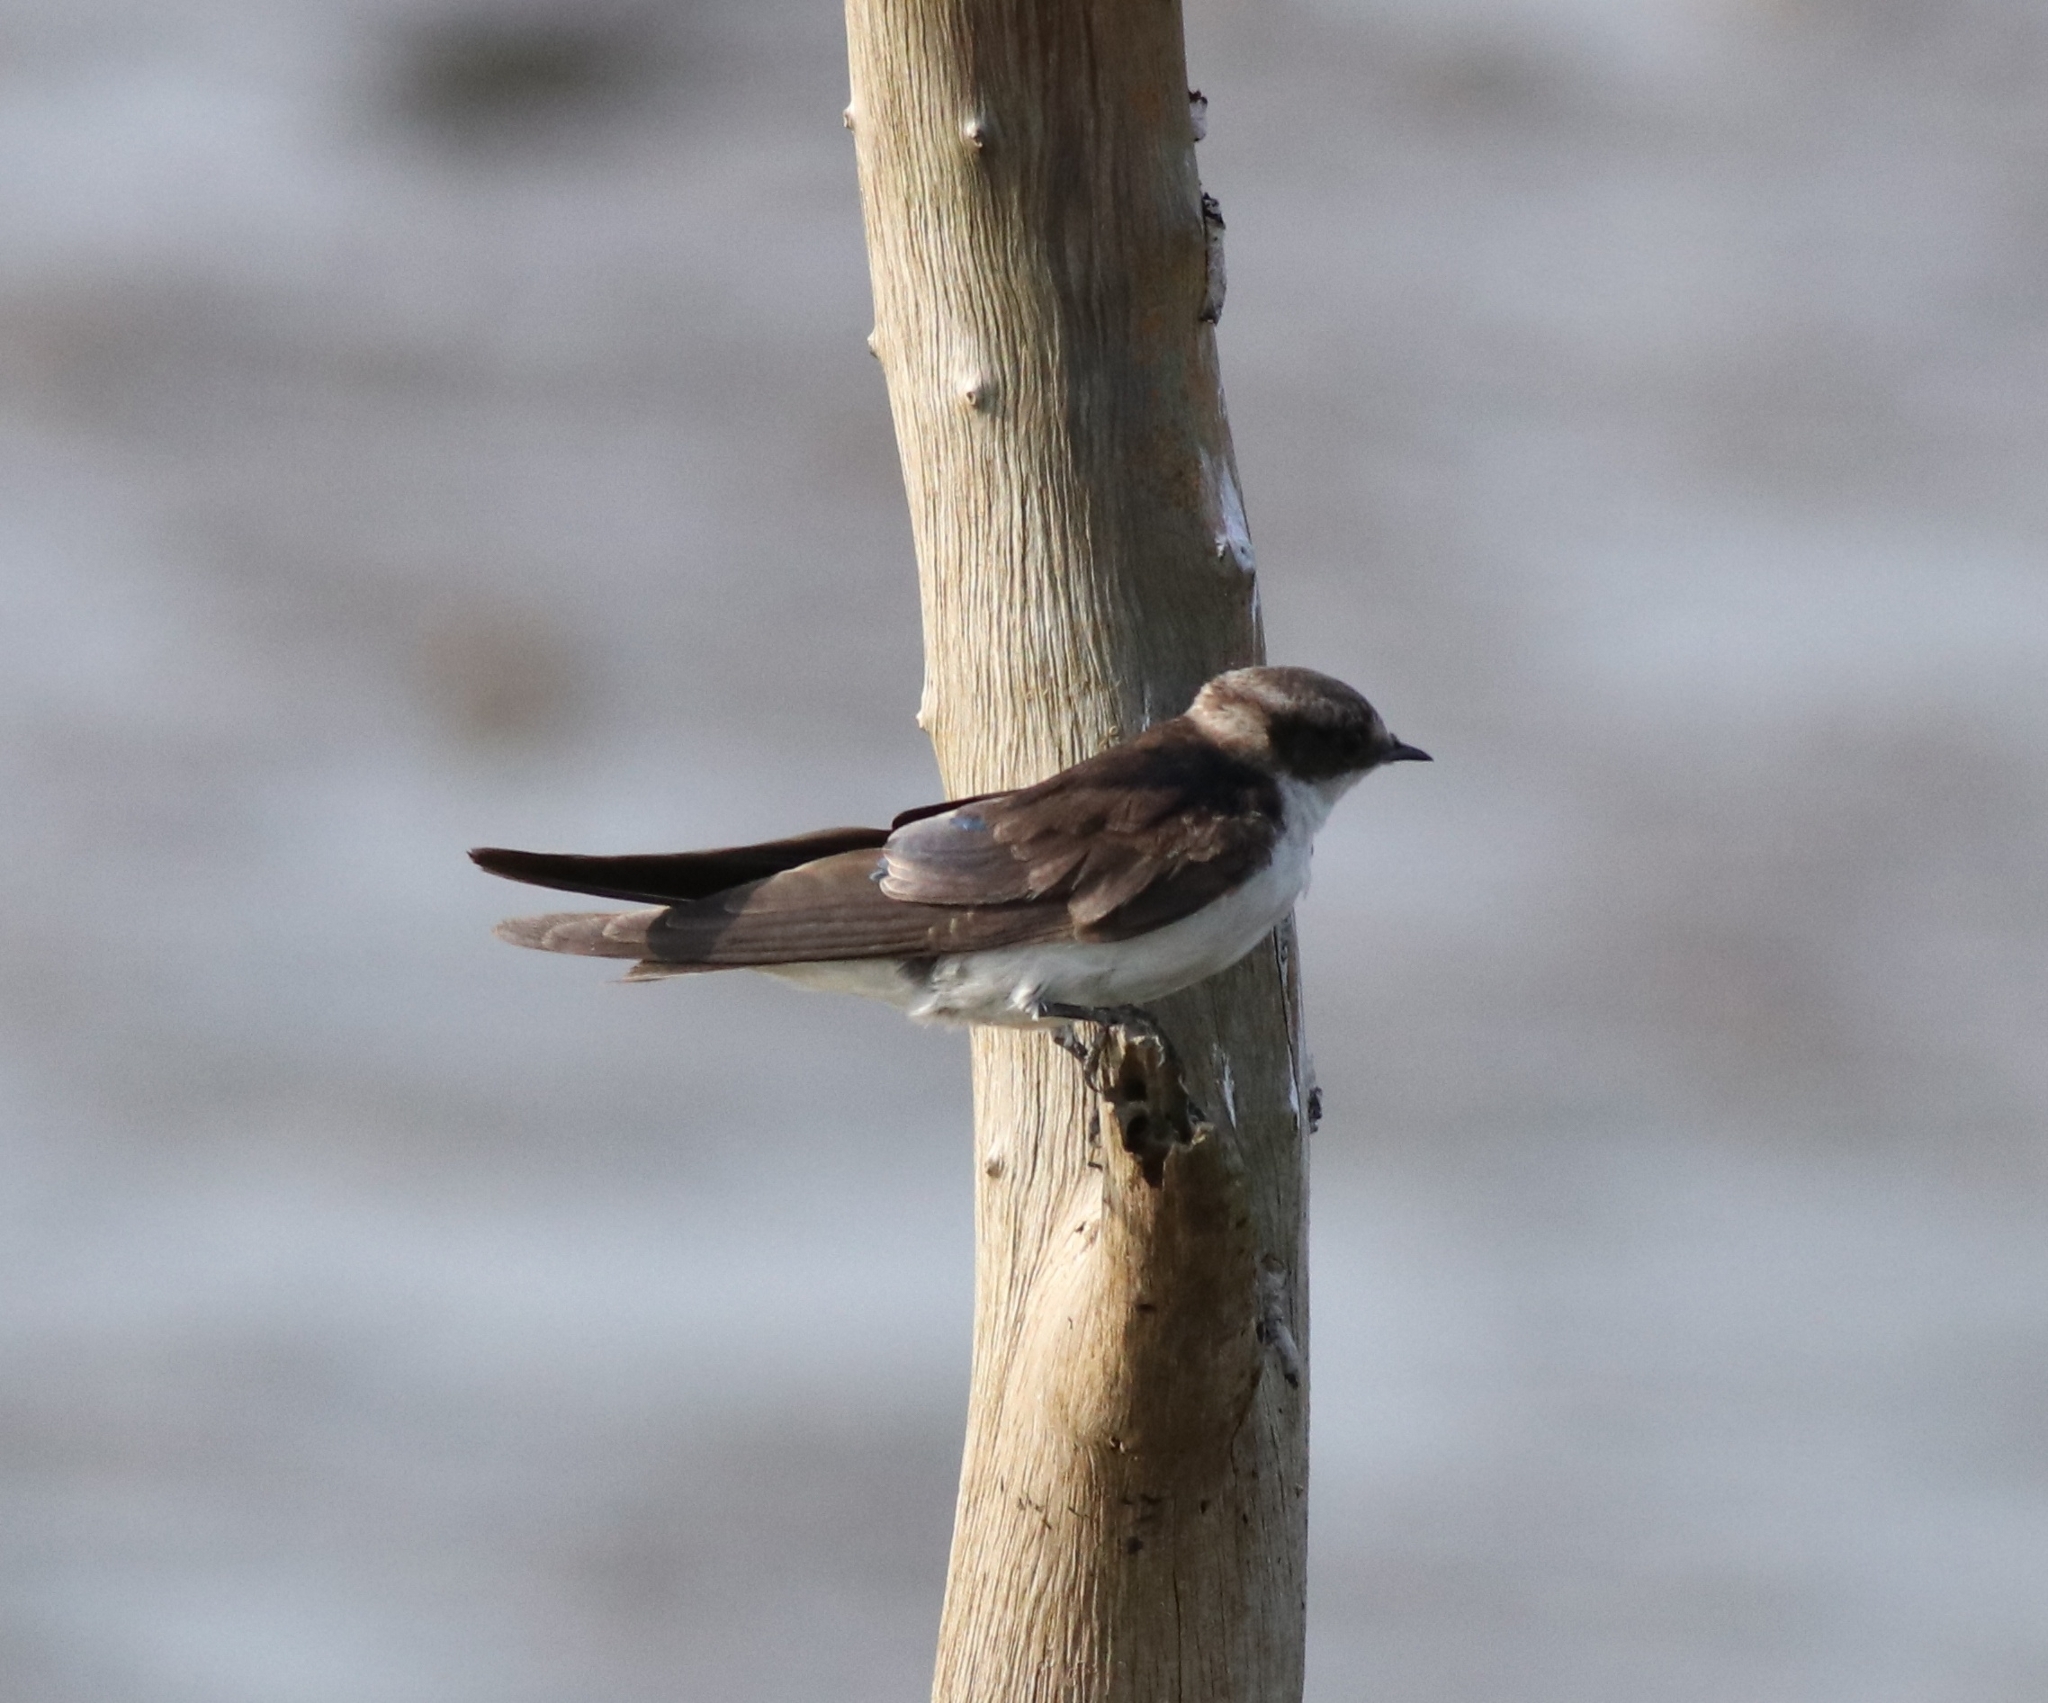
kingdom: Animalia
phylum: Chordata
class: Aves
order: Passeriformes
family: Hirundinidae
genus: Hirundo
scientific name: Hirundo smithii
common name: Wire-tailed swallow
